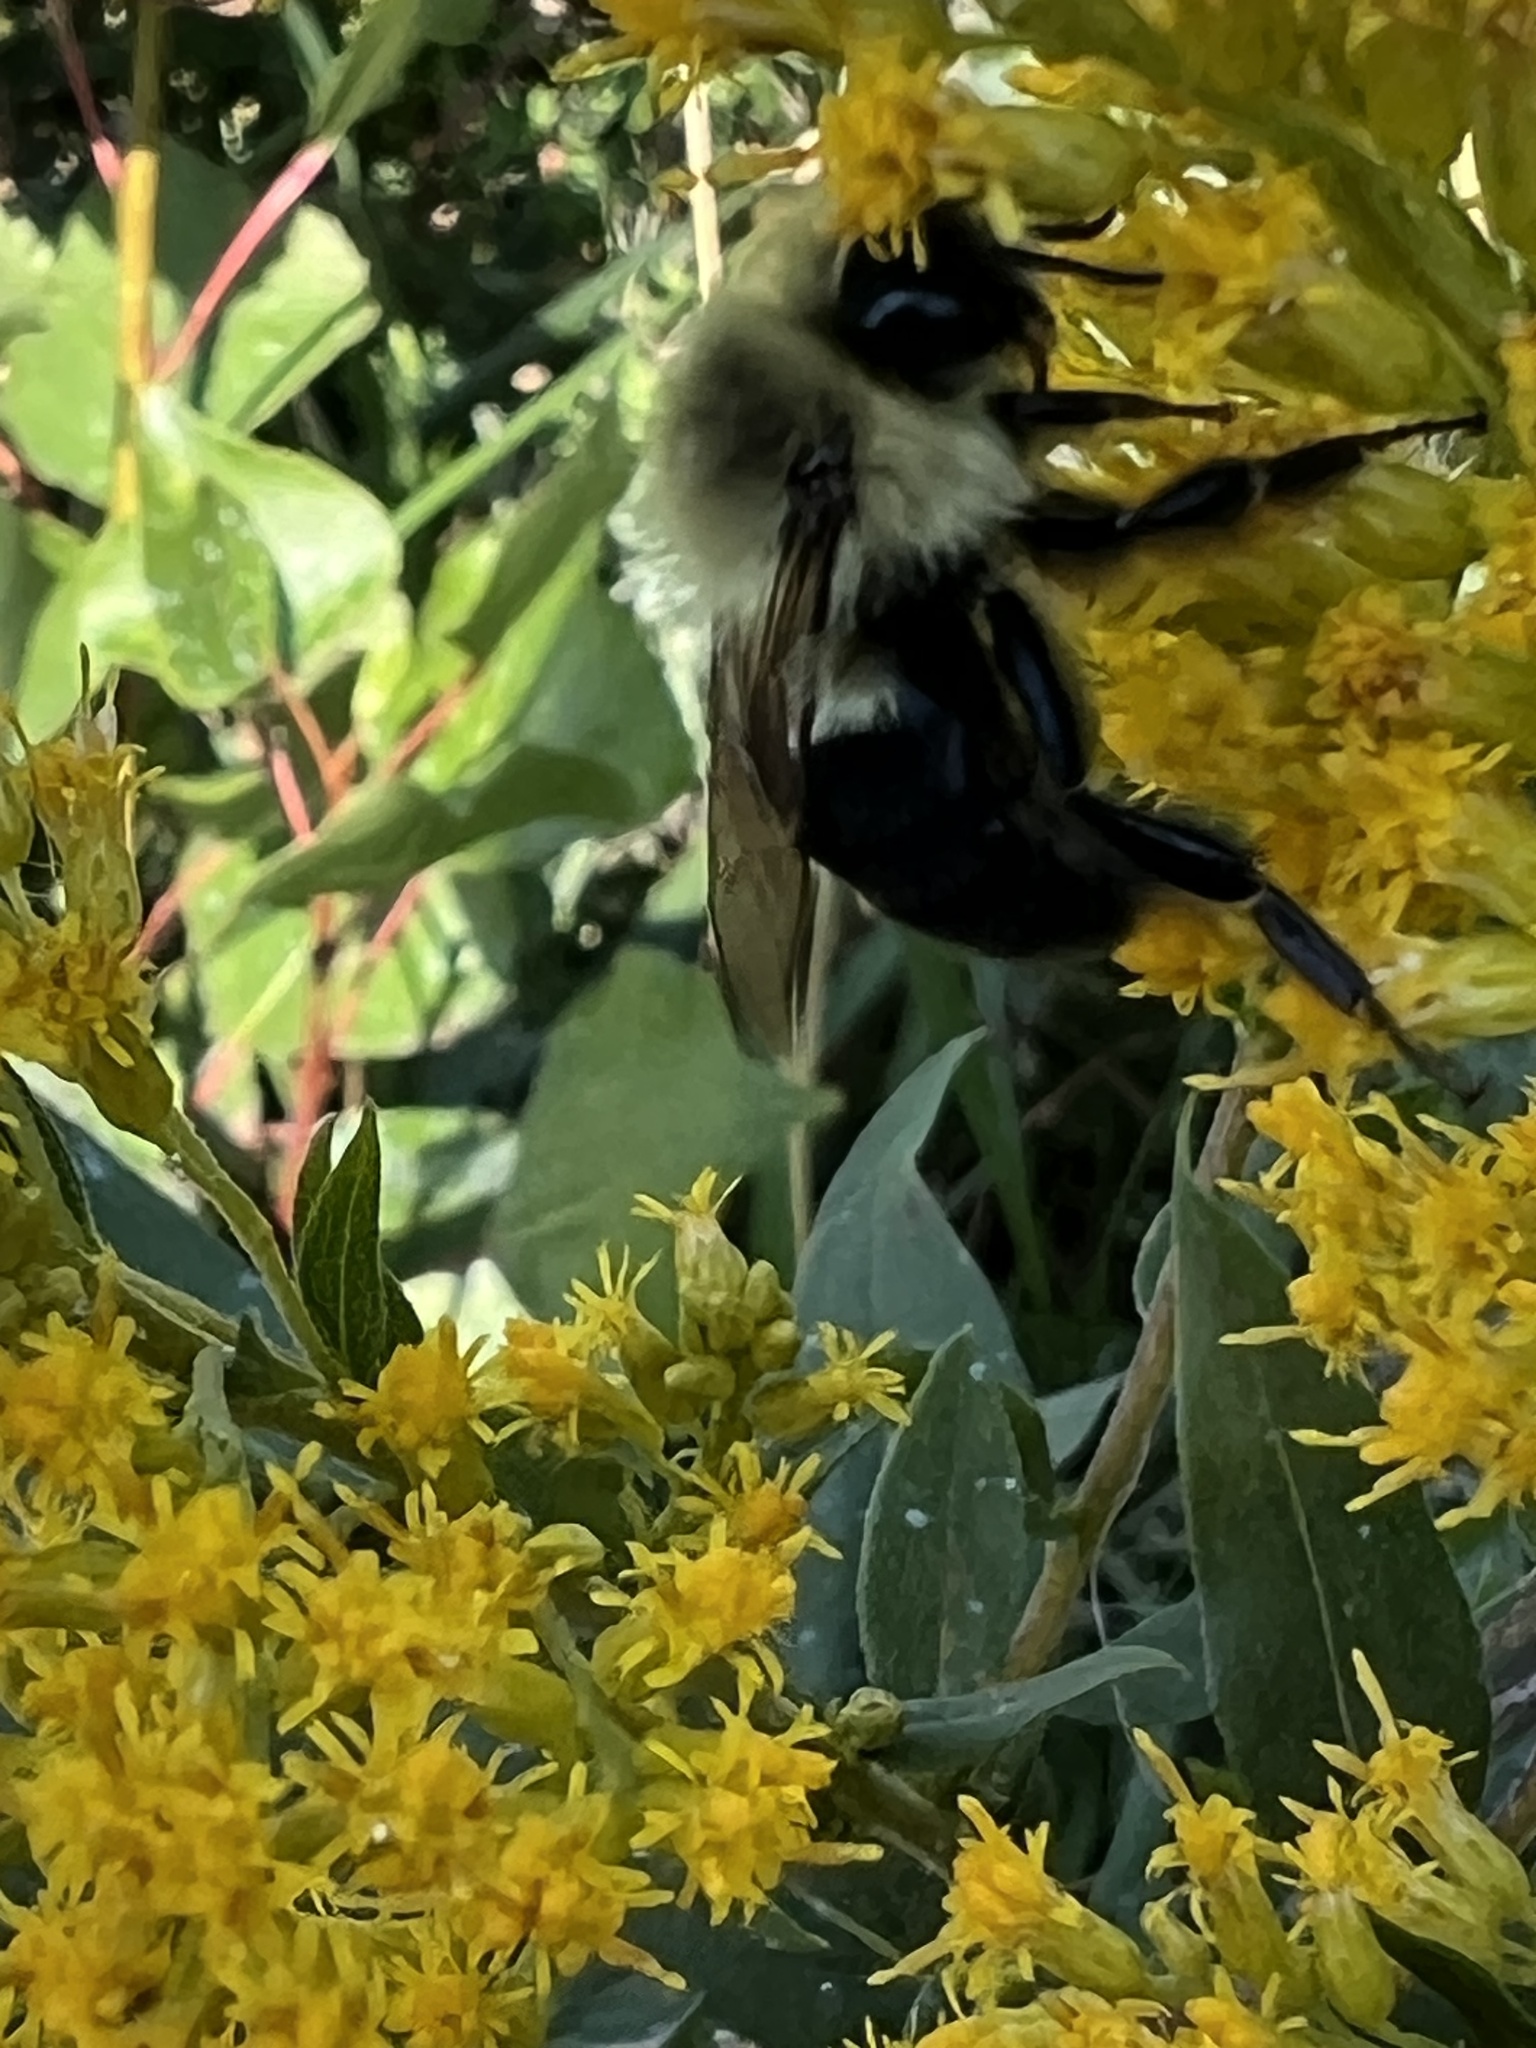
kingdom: Animalia
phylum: Arthropoda
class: Insecta
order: Hymenoptera
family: Apidae
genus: Bombus
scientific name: Bombus impatiens
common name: Common eastern bumble bee
